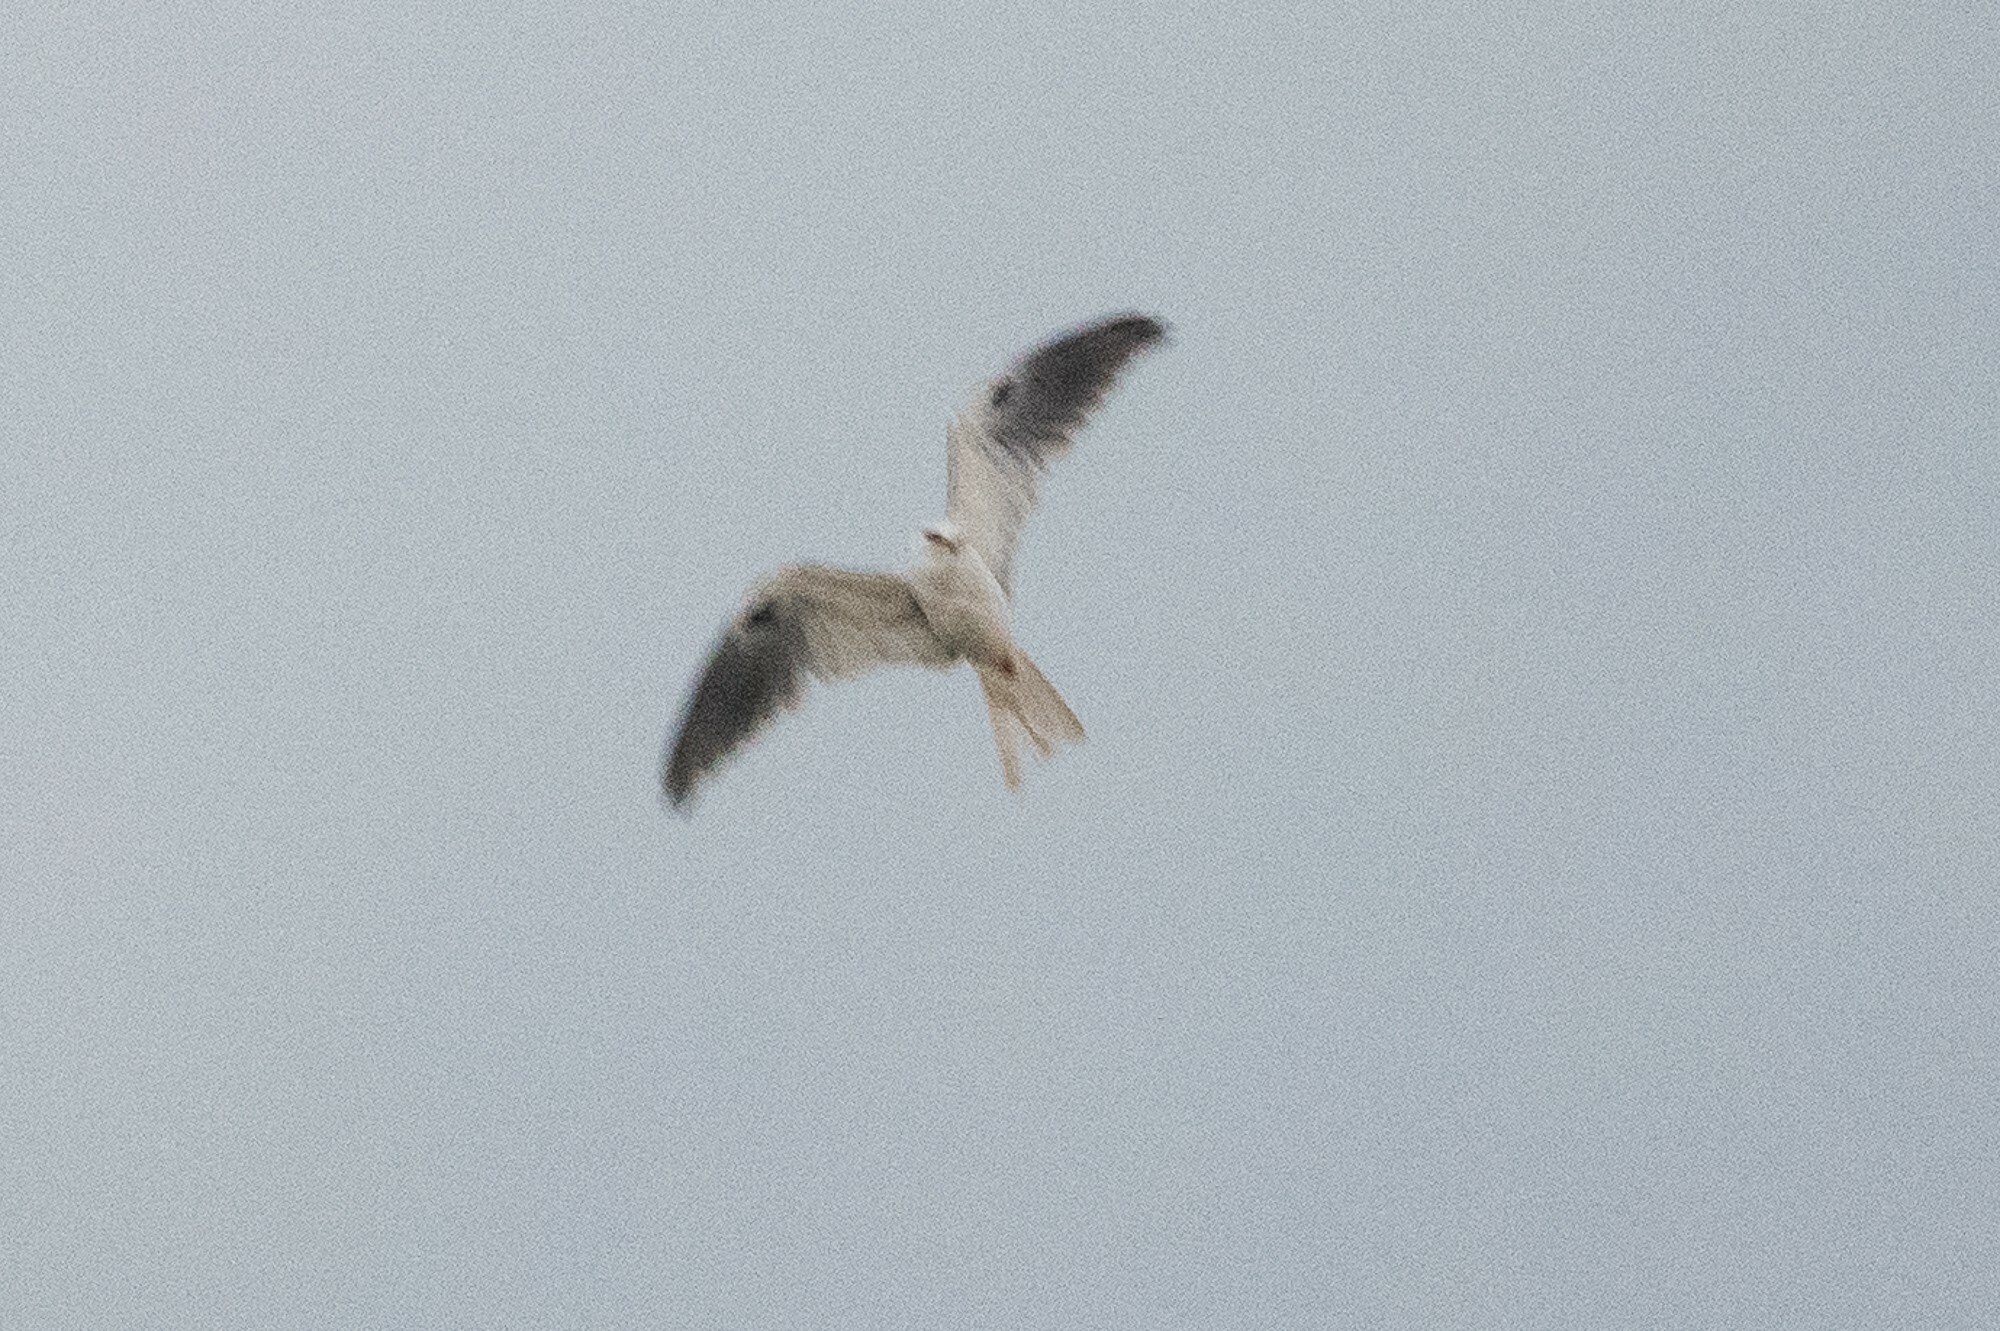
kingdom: Animalia
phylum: Chordata
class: Aves
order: Accipitriformes
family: Accipitridae
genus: Elanus
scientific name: Elanus leucurus
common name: White-tailed kite
